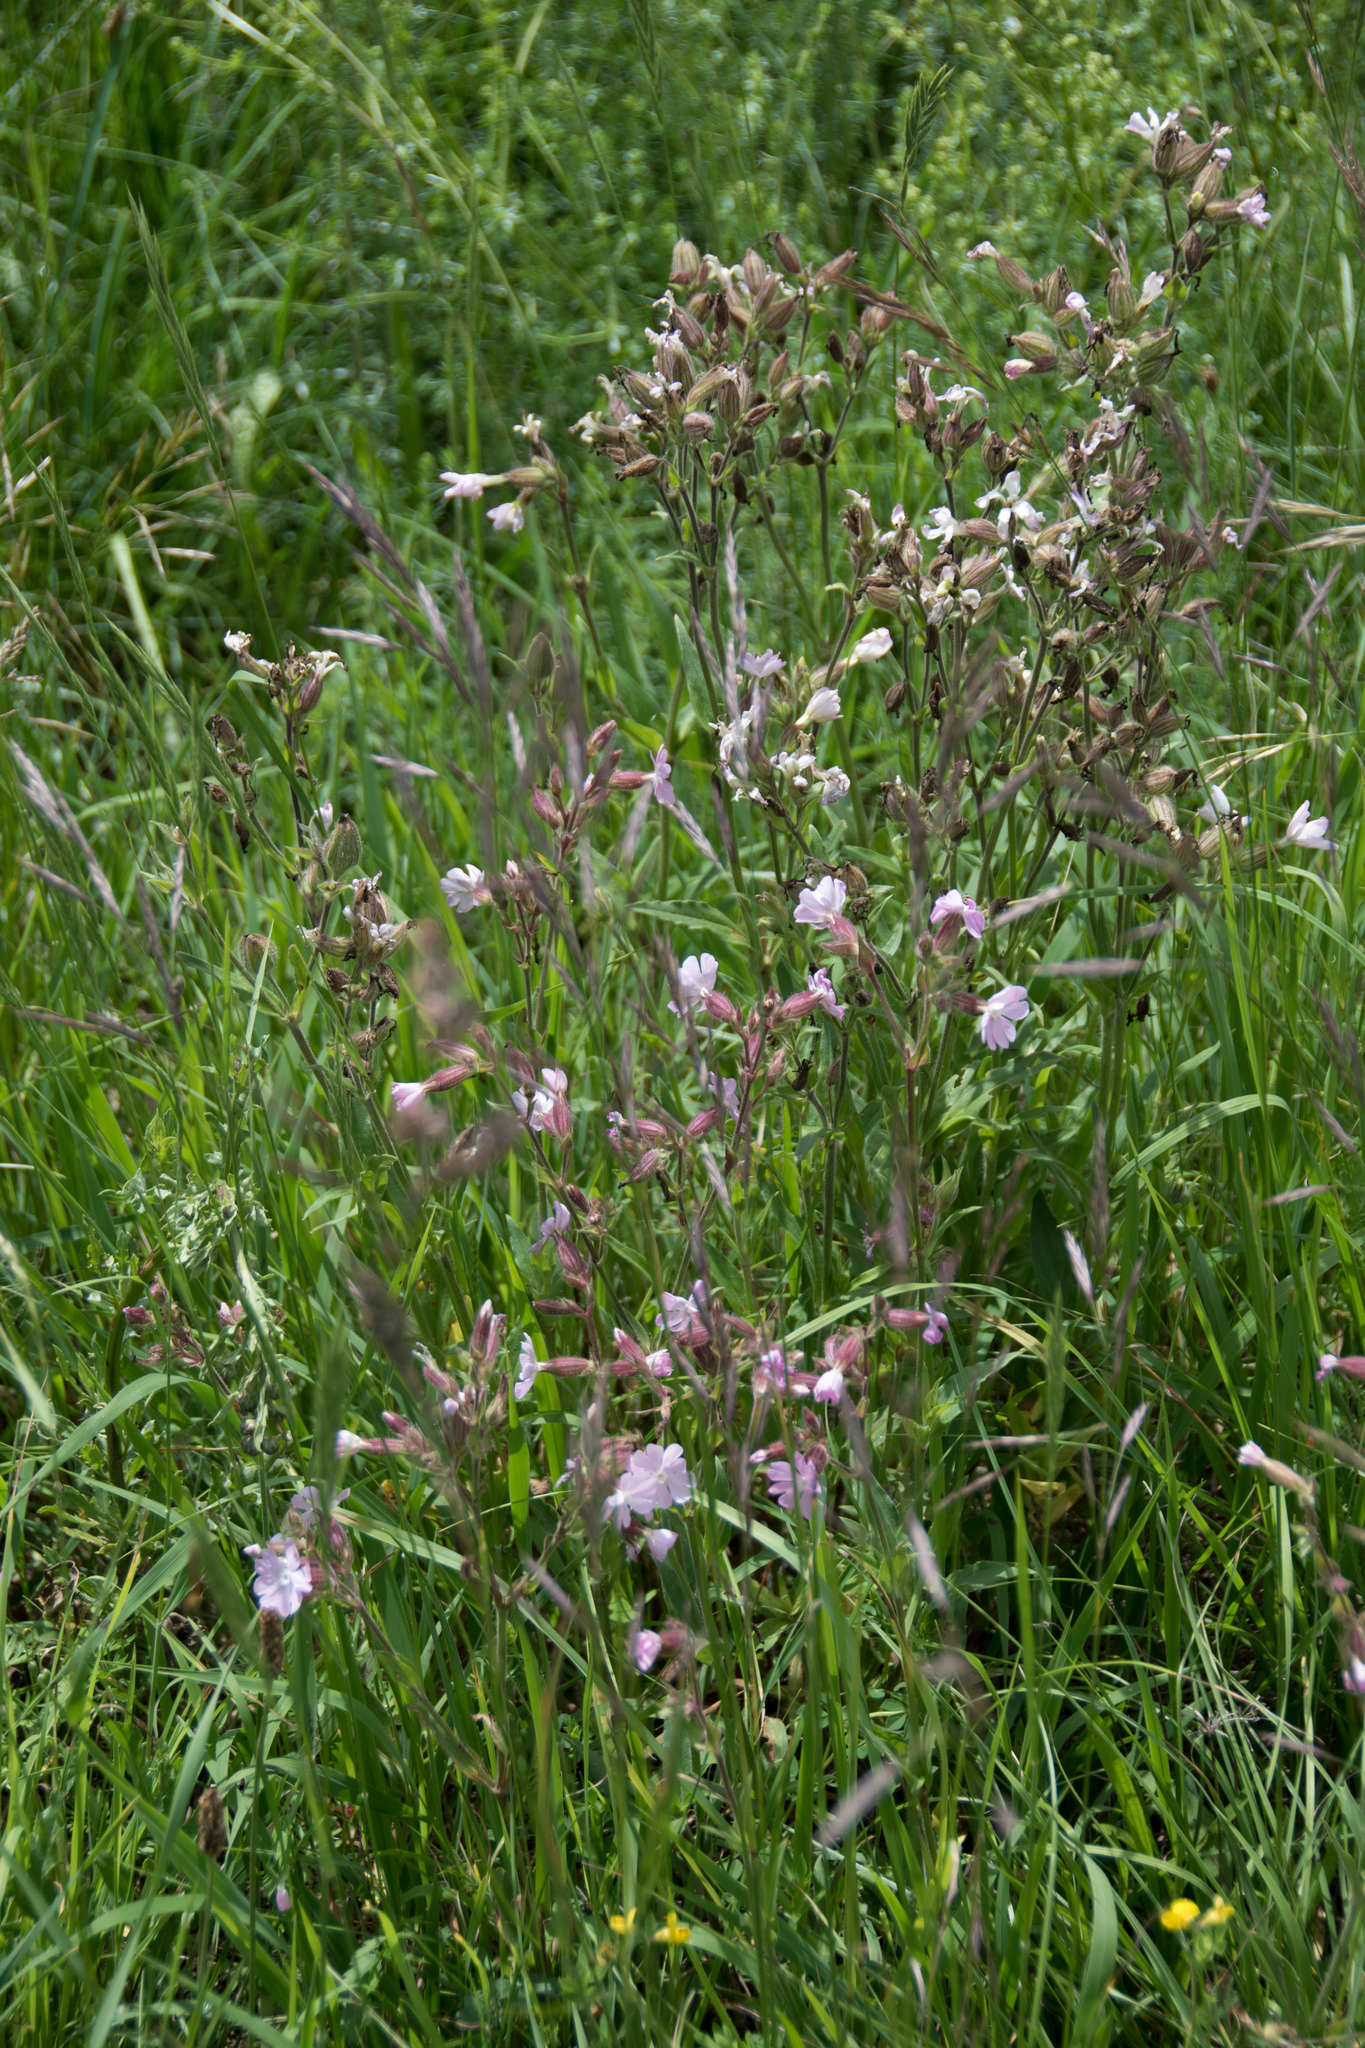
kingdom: Plantae
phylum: Tracheophyta
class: Magnoliopsida
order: Caryophyllales
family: Caryophyllaceae
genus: Silene
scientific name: Silene latifolia
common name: White campion
